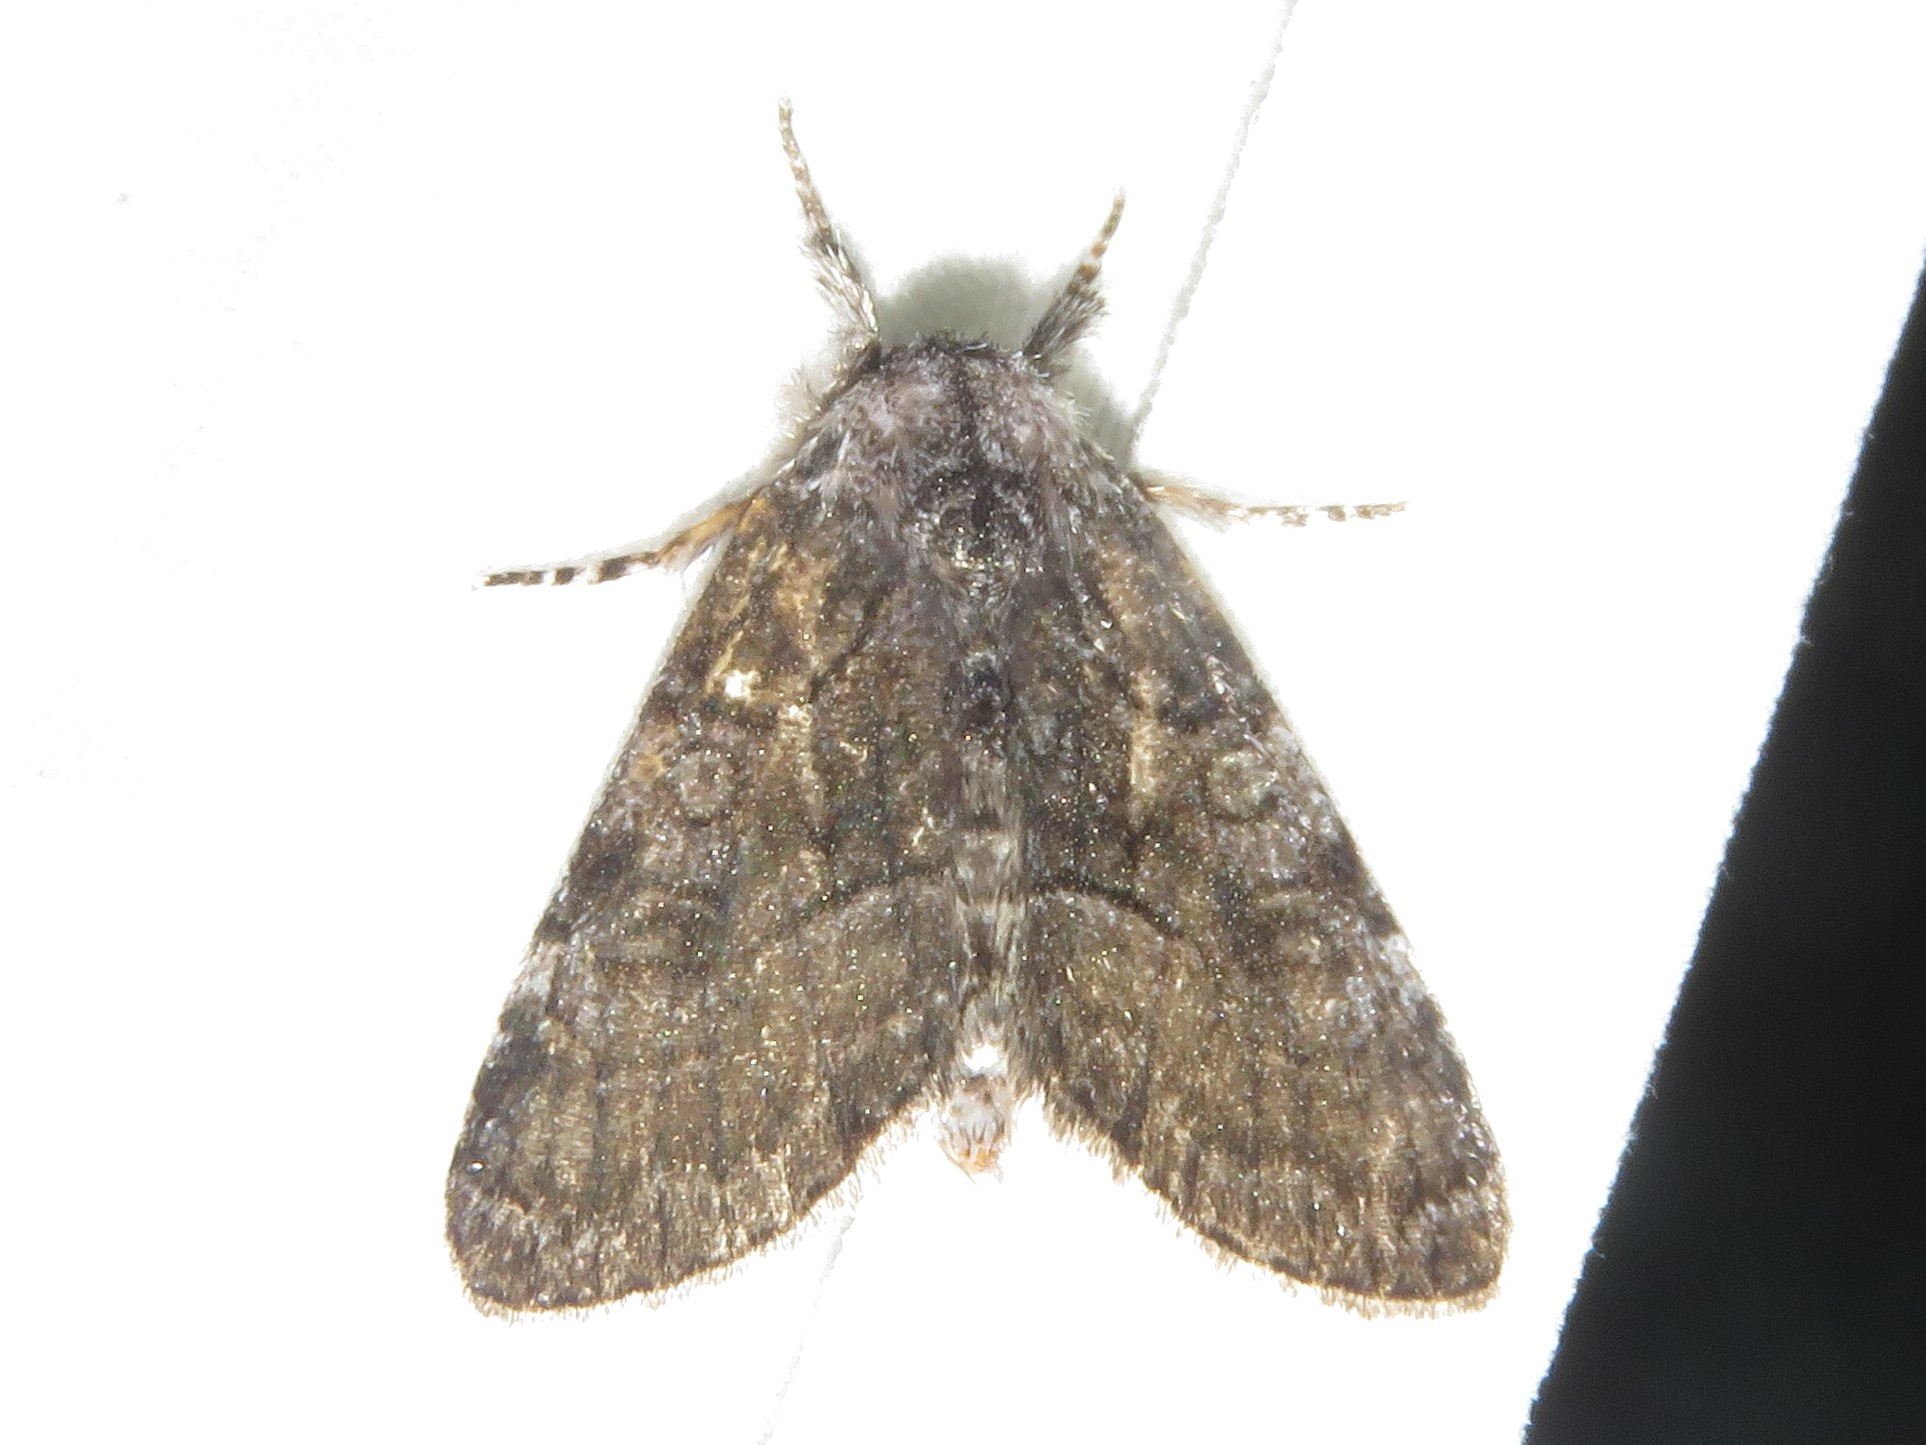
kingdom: Animalia
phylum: Arthropoda
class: Insecta
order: Lepidoptera
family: Noctuidae
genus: Raphia
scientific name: Raphia frater
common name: Brother
